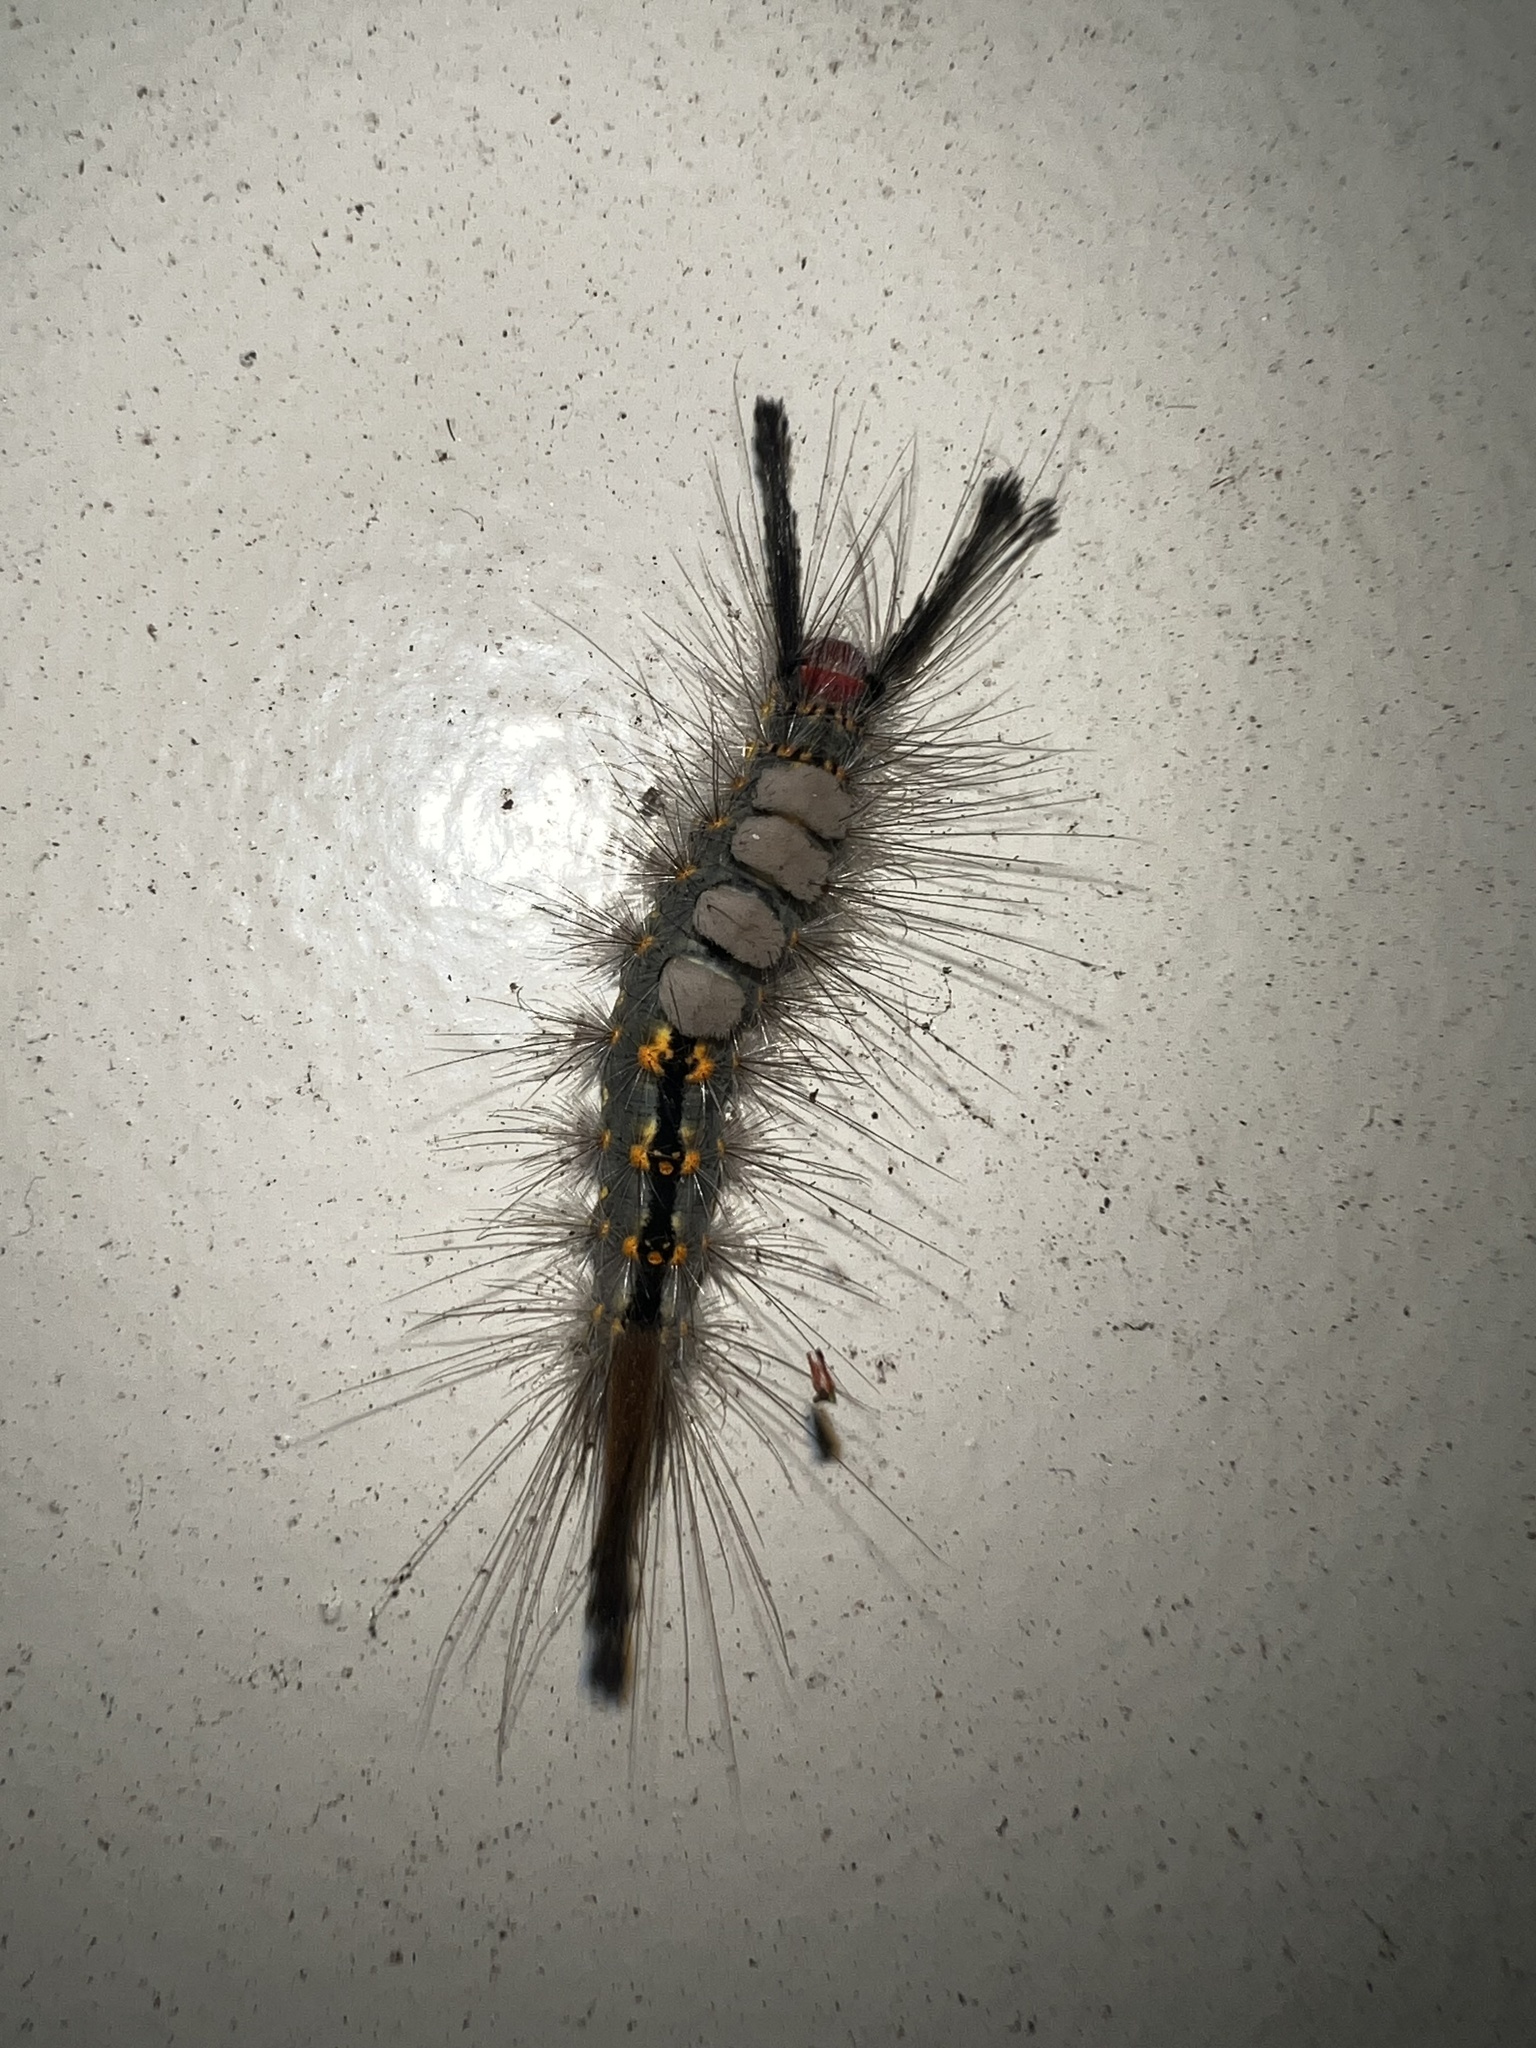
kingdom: Animalia
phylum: Arthropoda
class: Insecta
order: Lepidoptera
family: Erebidae
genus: Orgyia
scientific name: Orgyia detrita
